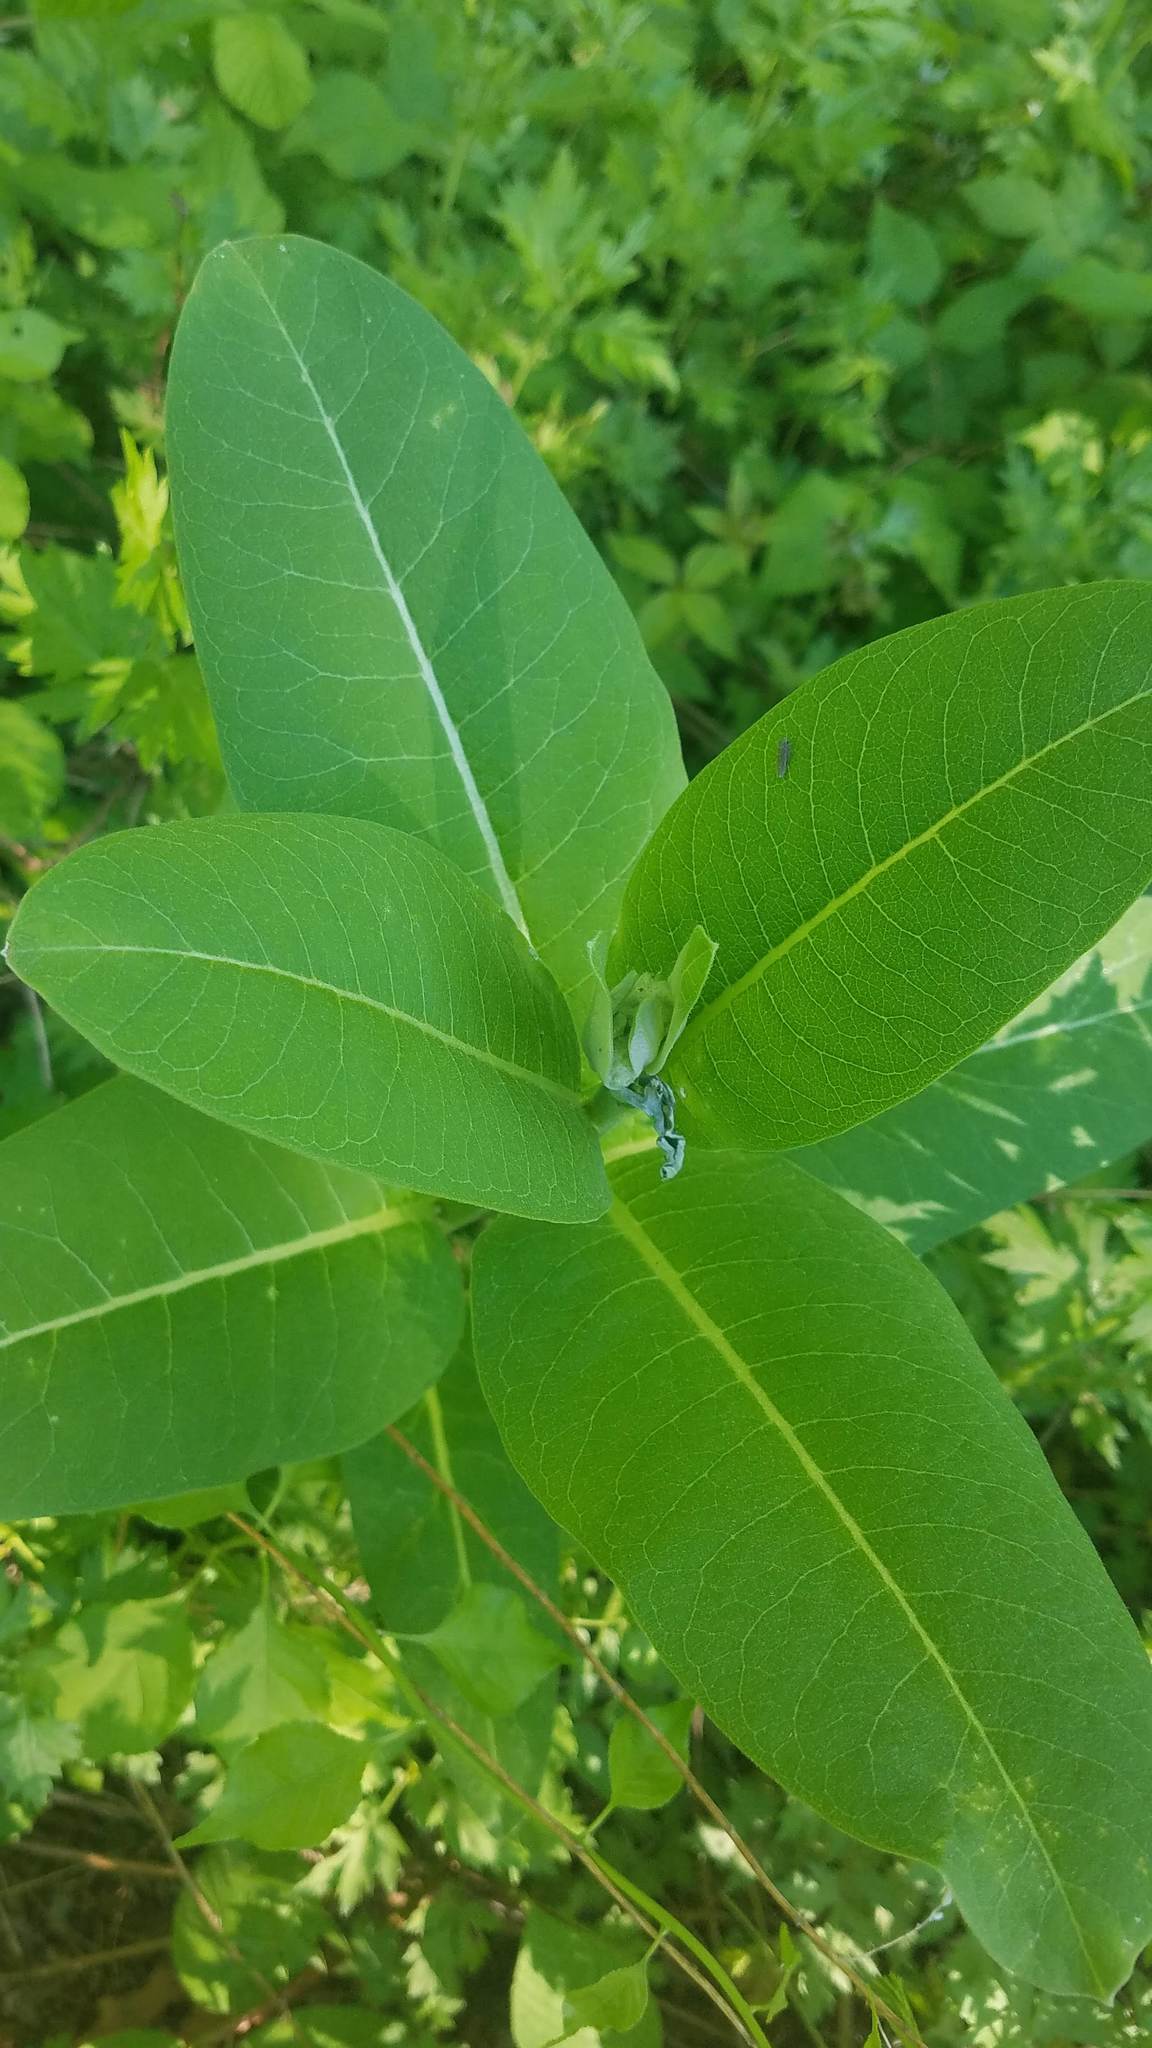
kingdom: Plantae
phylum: Tracheophyta
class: Magnoliopsida
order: Gentianales
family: Apocynaceae
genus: Asclepias
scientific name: Asclepias syriaca
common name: Common milkweed
